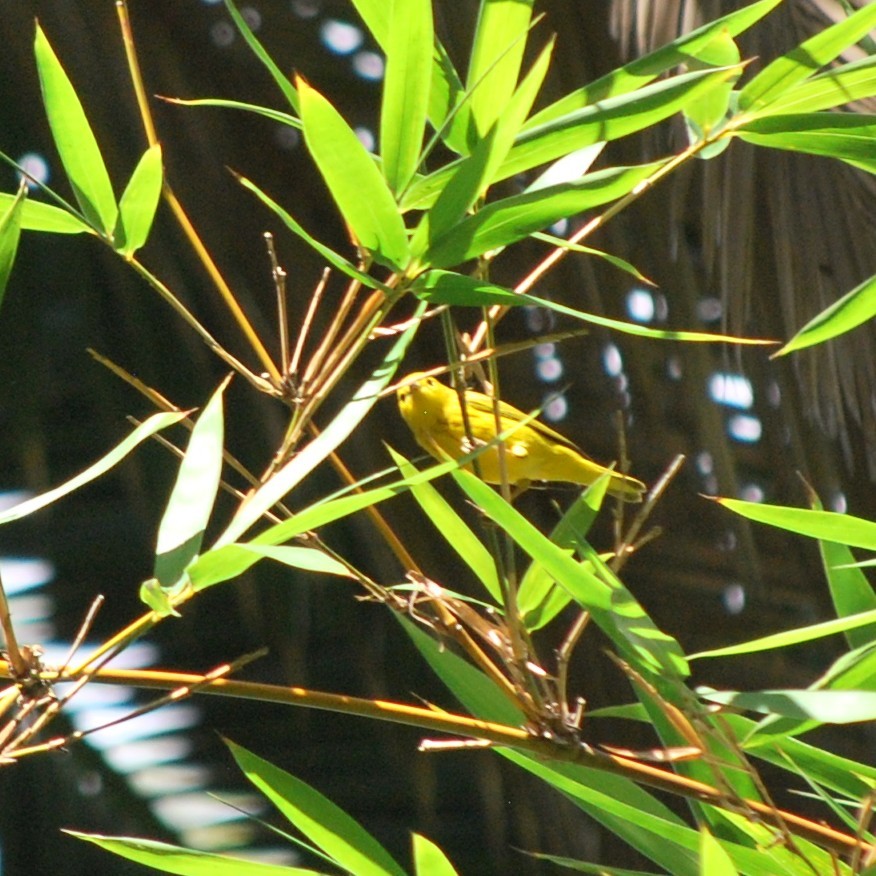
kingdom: Animalia
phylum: Chordata
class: Aves
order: Passeriformes
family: Parulidae
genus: Setophaga
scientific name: Setophaga petechia
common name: Yellow warbler
